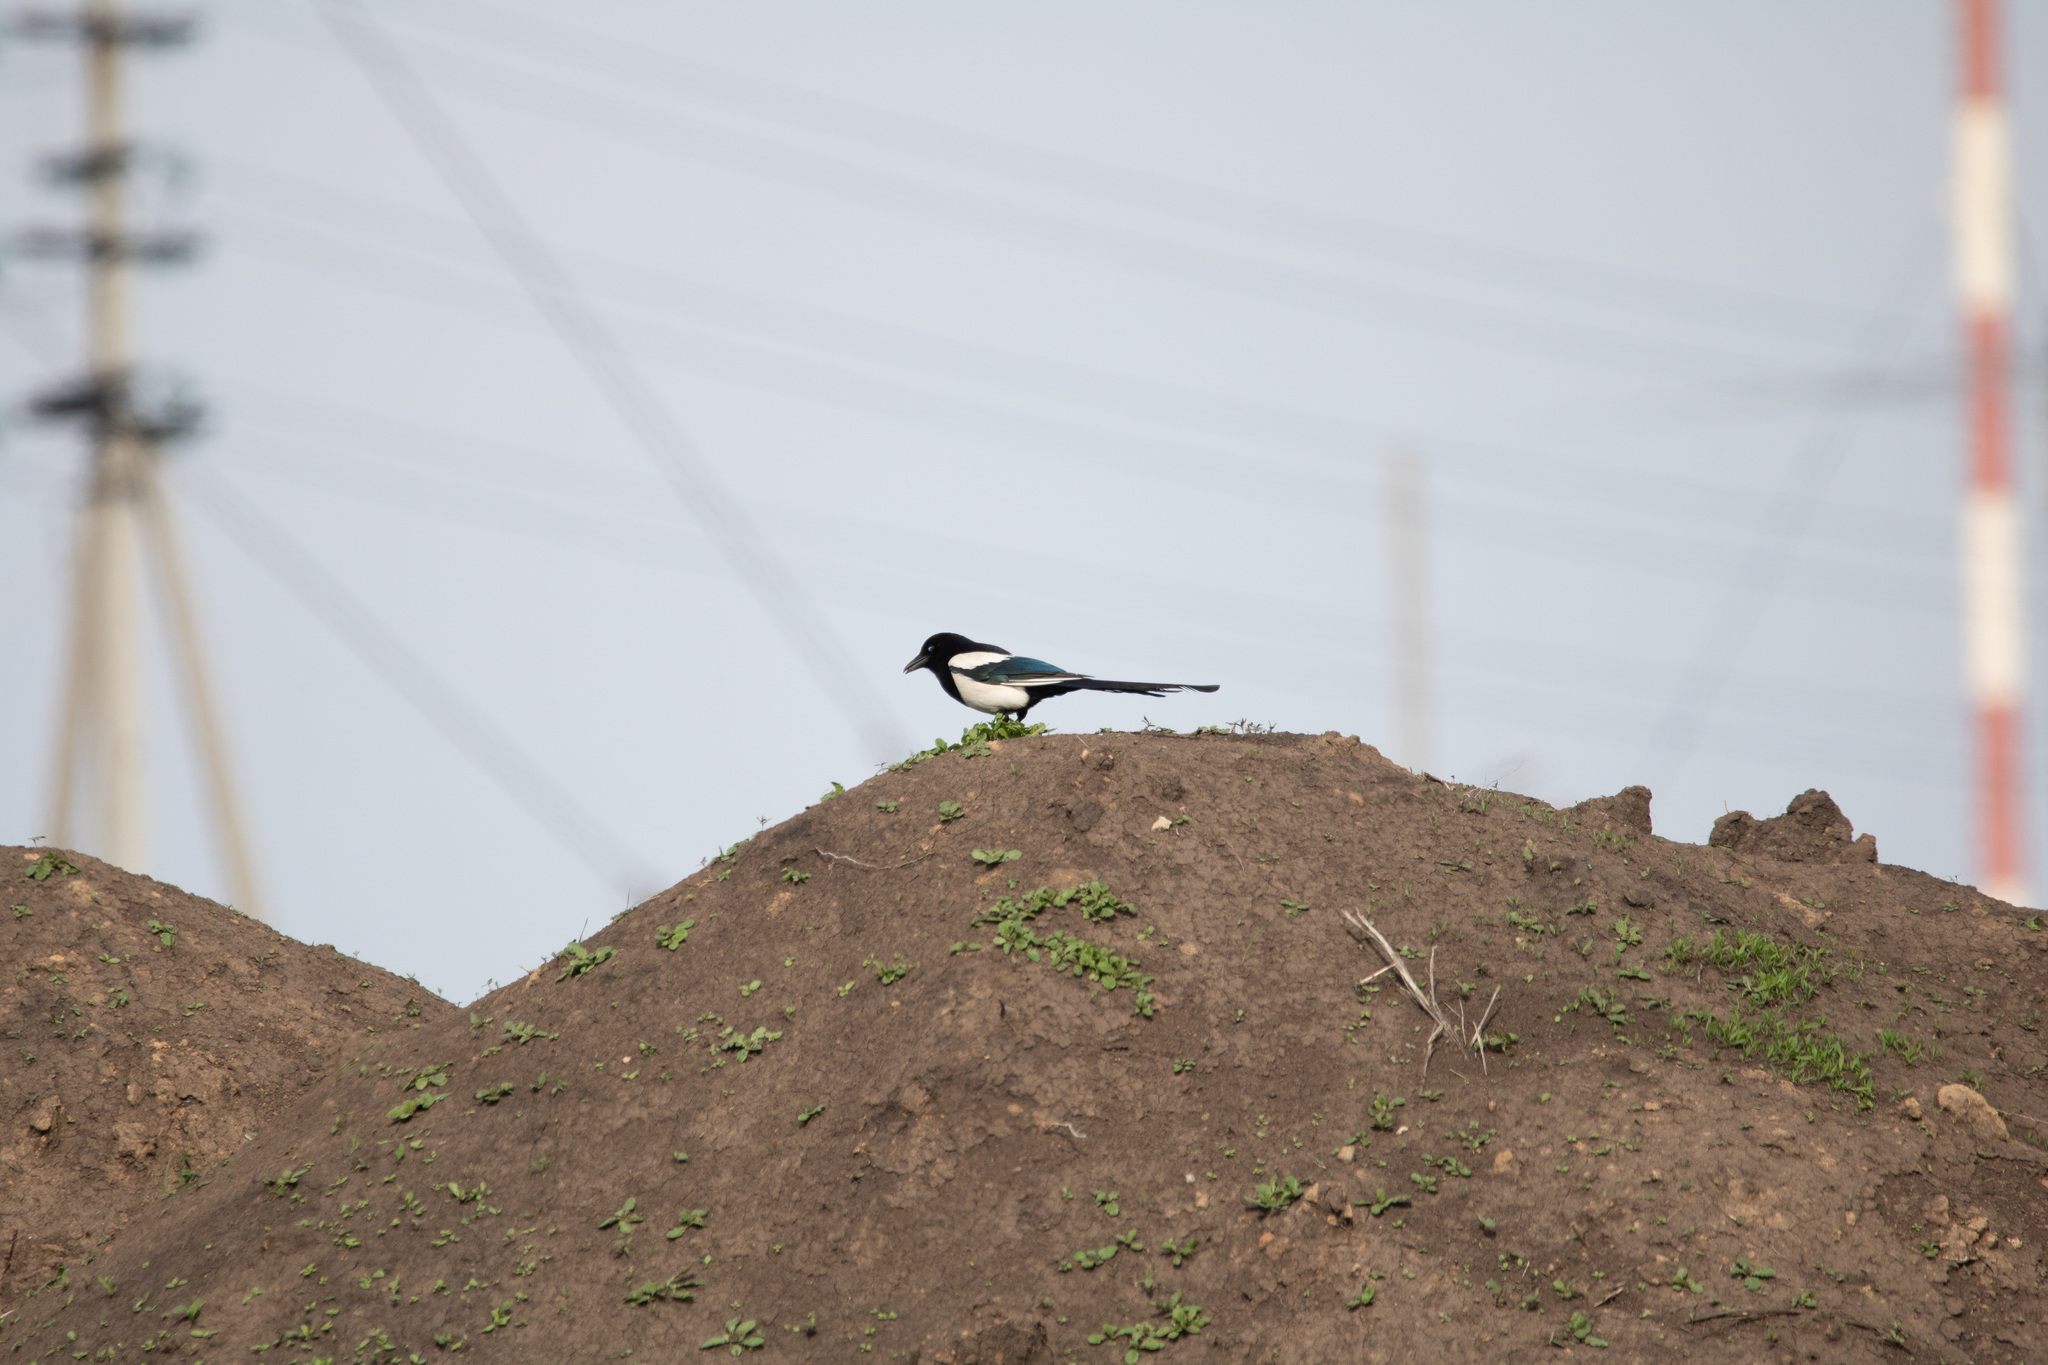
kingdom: Animalia
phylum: Chordata
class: Aves
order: Passeriformes
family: Corvidae
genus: Pica
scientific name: Pica pica
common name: Eurasian magpie
